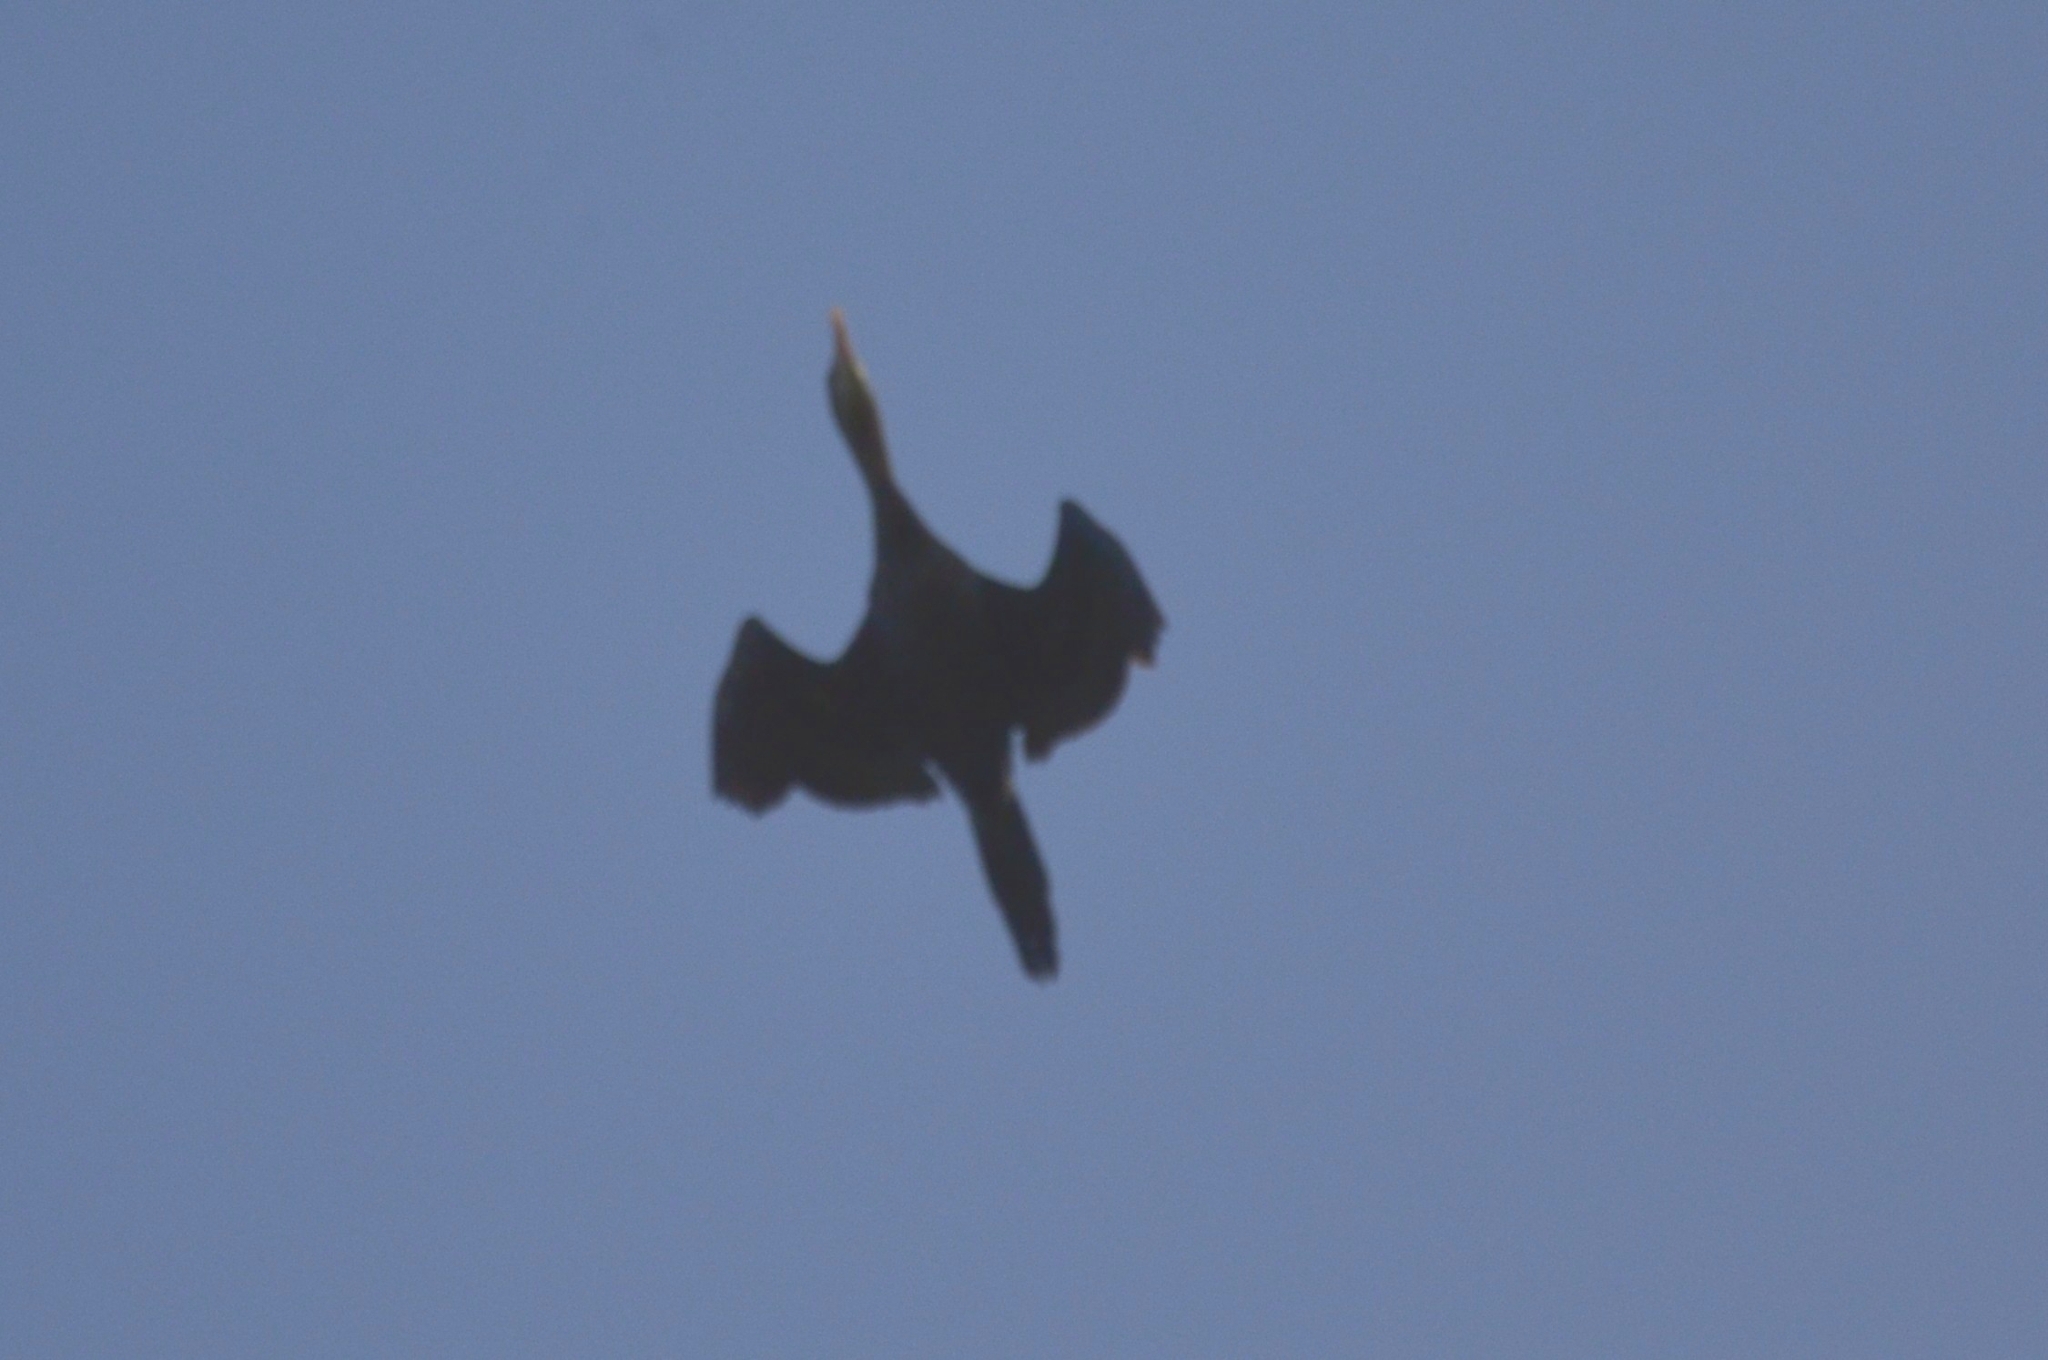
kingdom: Animalia
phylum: Chordata
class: Aves
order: Suliformes
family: Phalacrocoracidae
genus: Microcarbo
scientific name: Microcarbo niger
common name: Little cormorant
